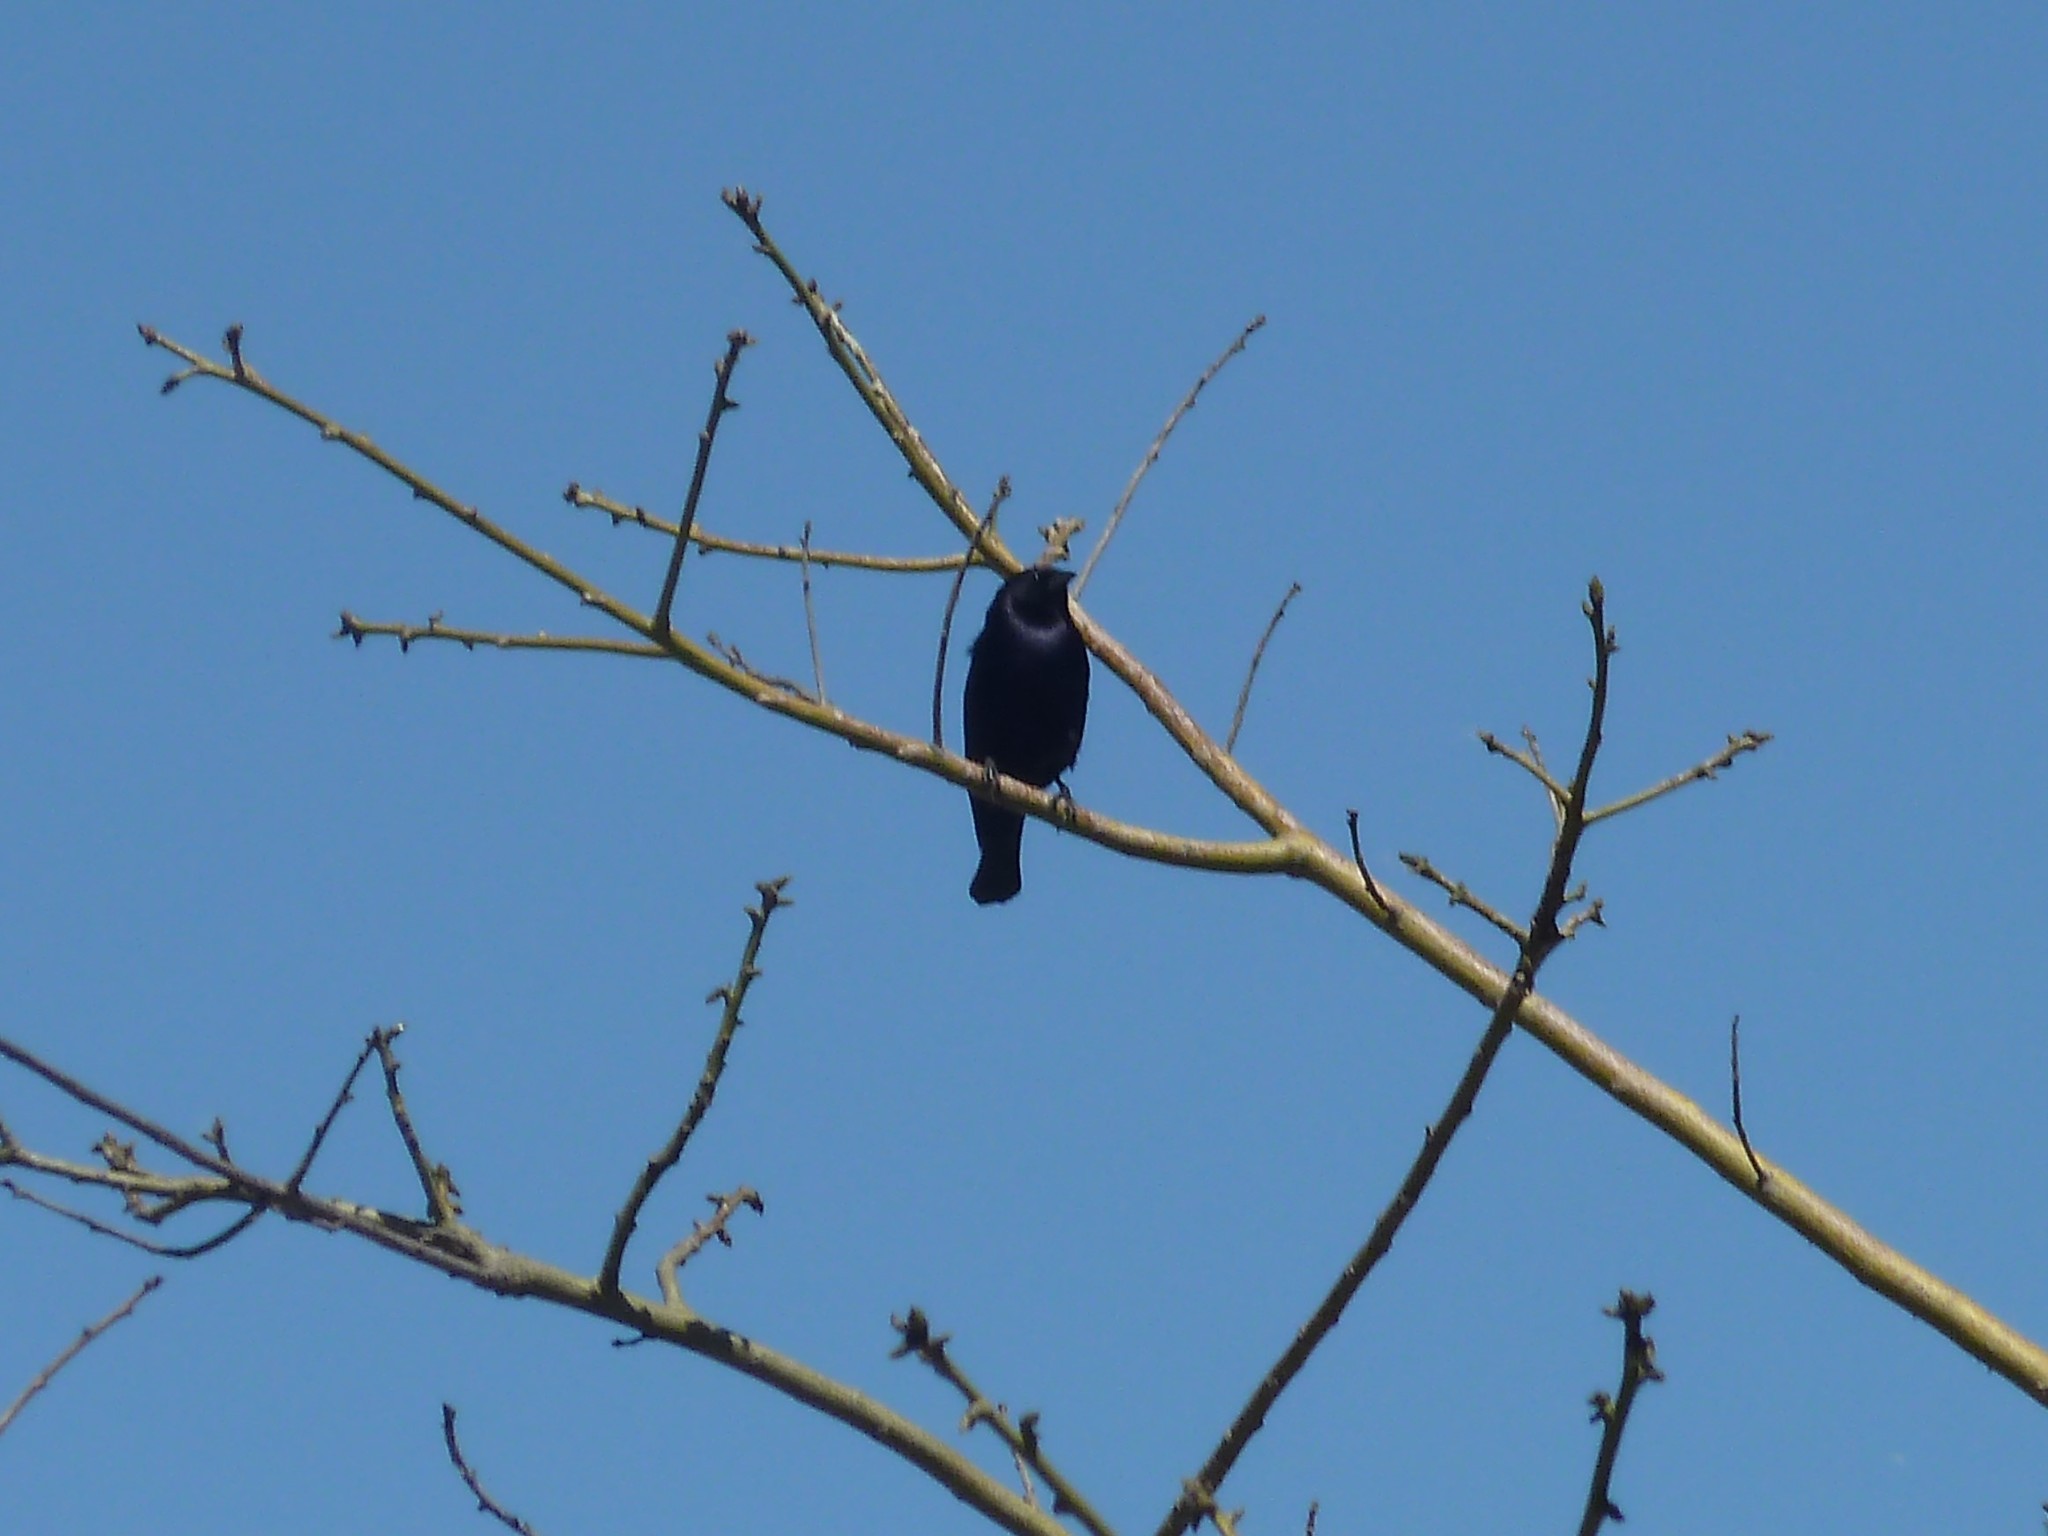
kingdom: Animalia
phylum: Chordata
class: Aves
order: Passeriformes
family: Icteridae
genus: Molothrus
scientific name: Molothrus bonariensis
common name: Shiny cowbird
